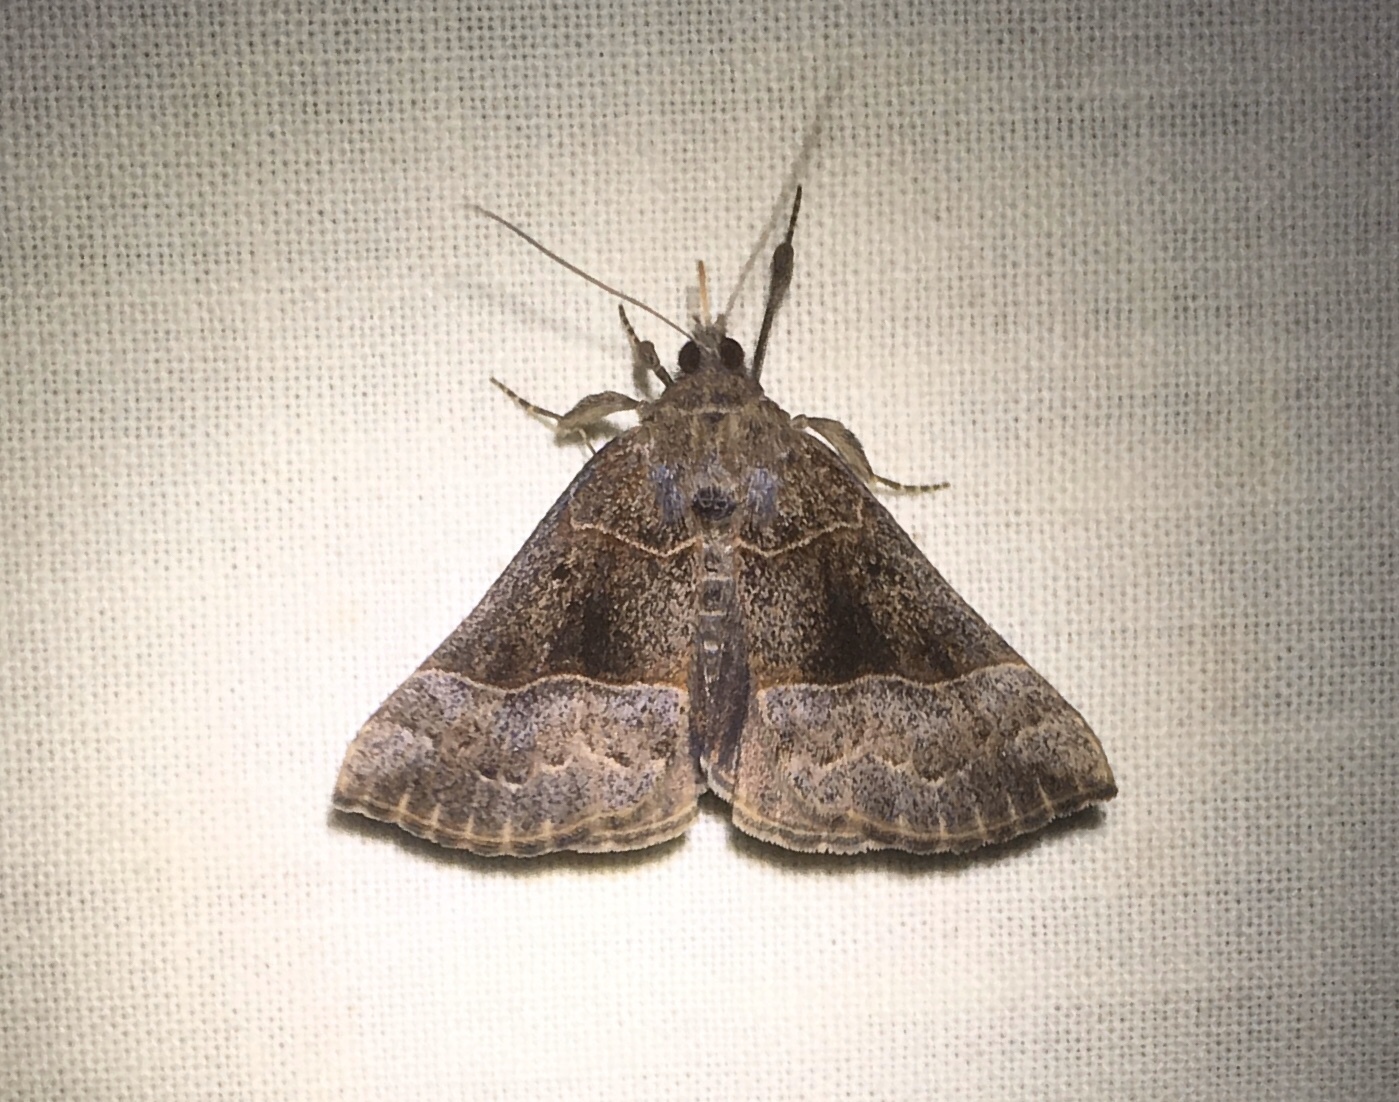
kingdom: Animalia
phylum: Arthropoda
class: Insecta
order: Lepidoptera
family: Erebidae
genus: Hypena
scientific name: Hypena deceptalis
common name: Deceptive snout
